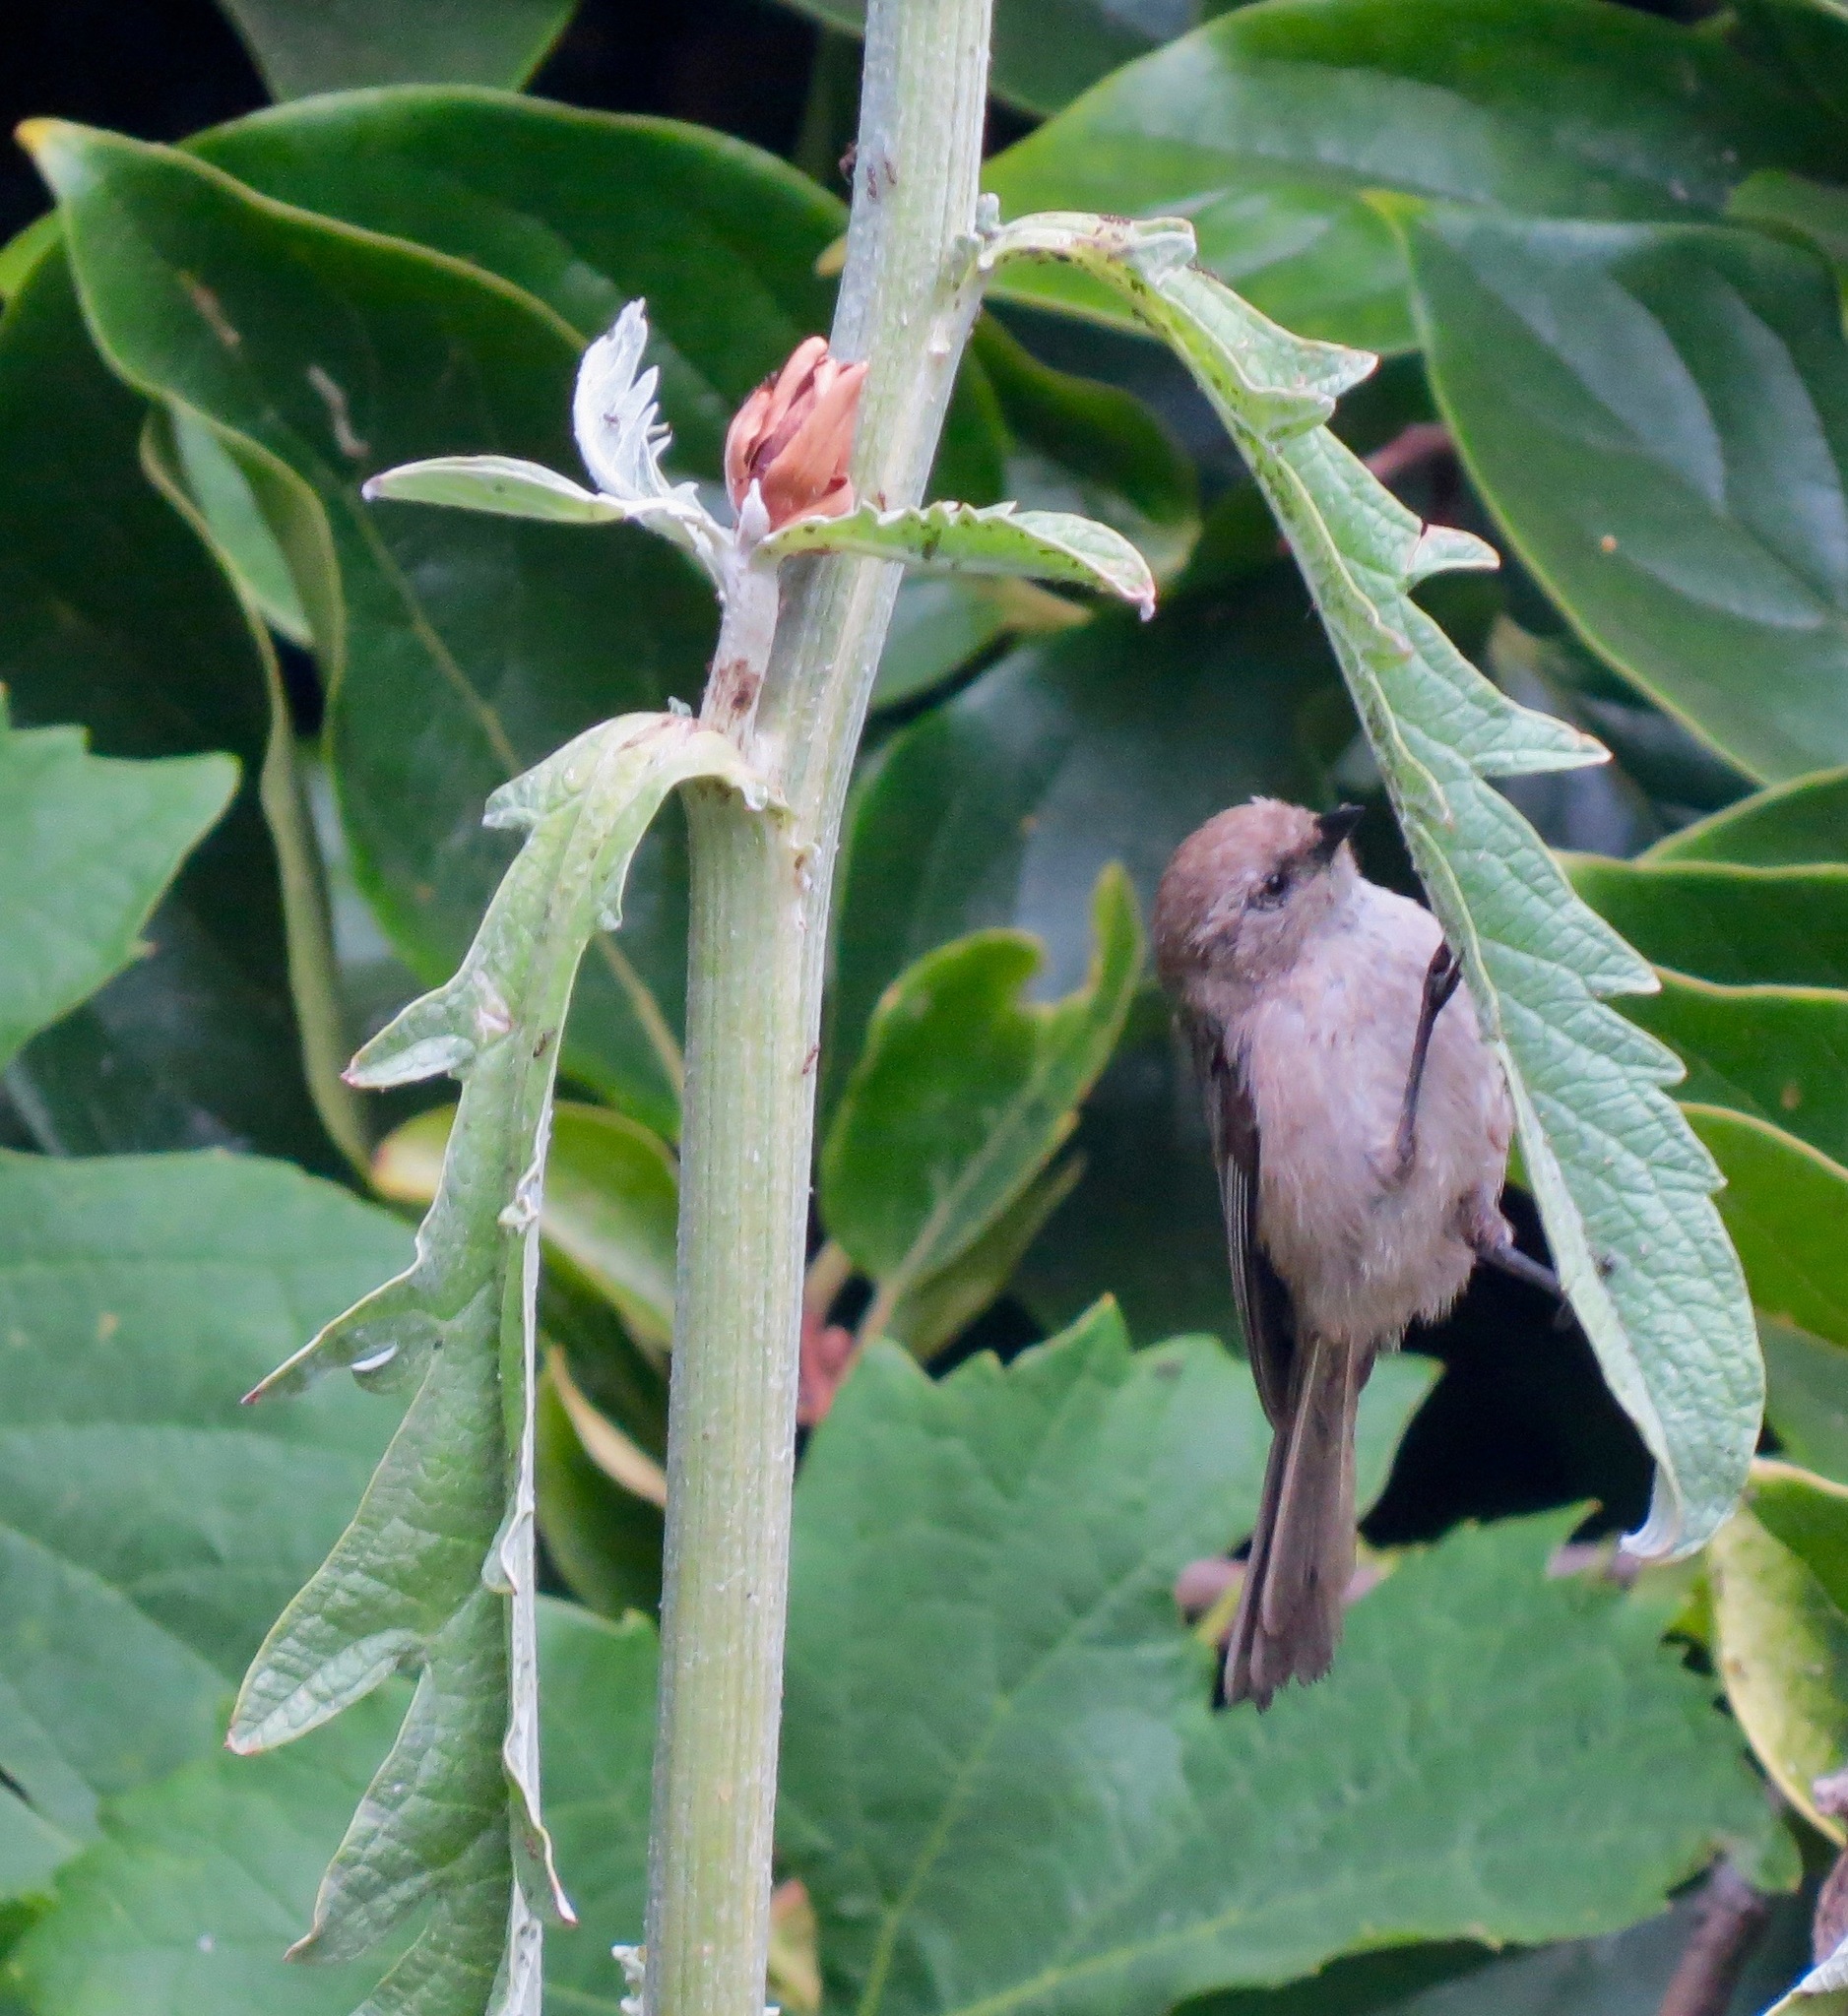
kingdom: Animalia
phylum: Chordata
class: Aves
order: Passeriformes
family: Aegithalidae
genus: Psaltriparus
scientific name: Psaltriparus minimus
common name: American bushtit
